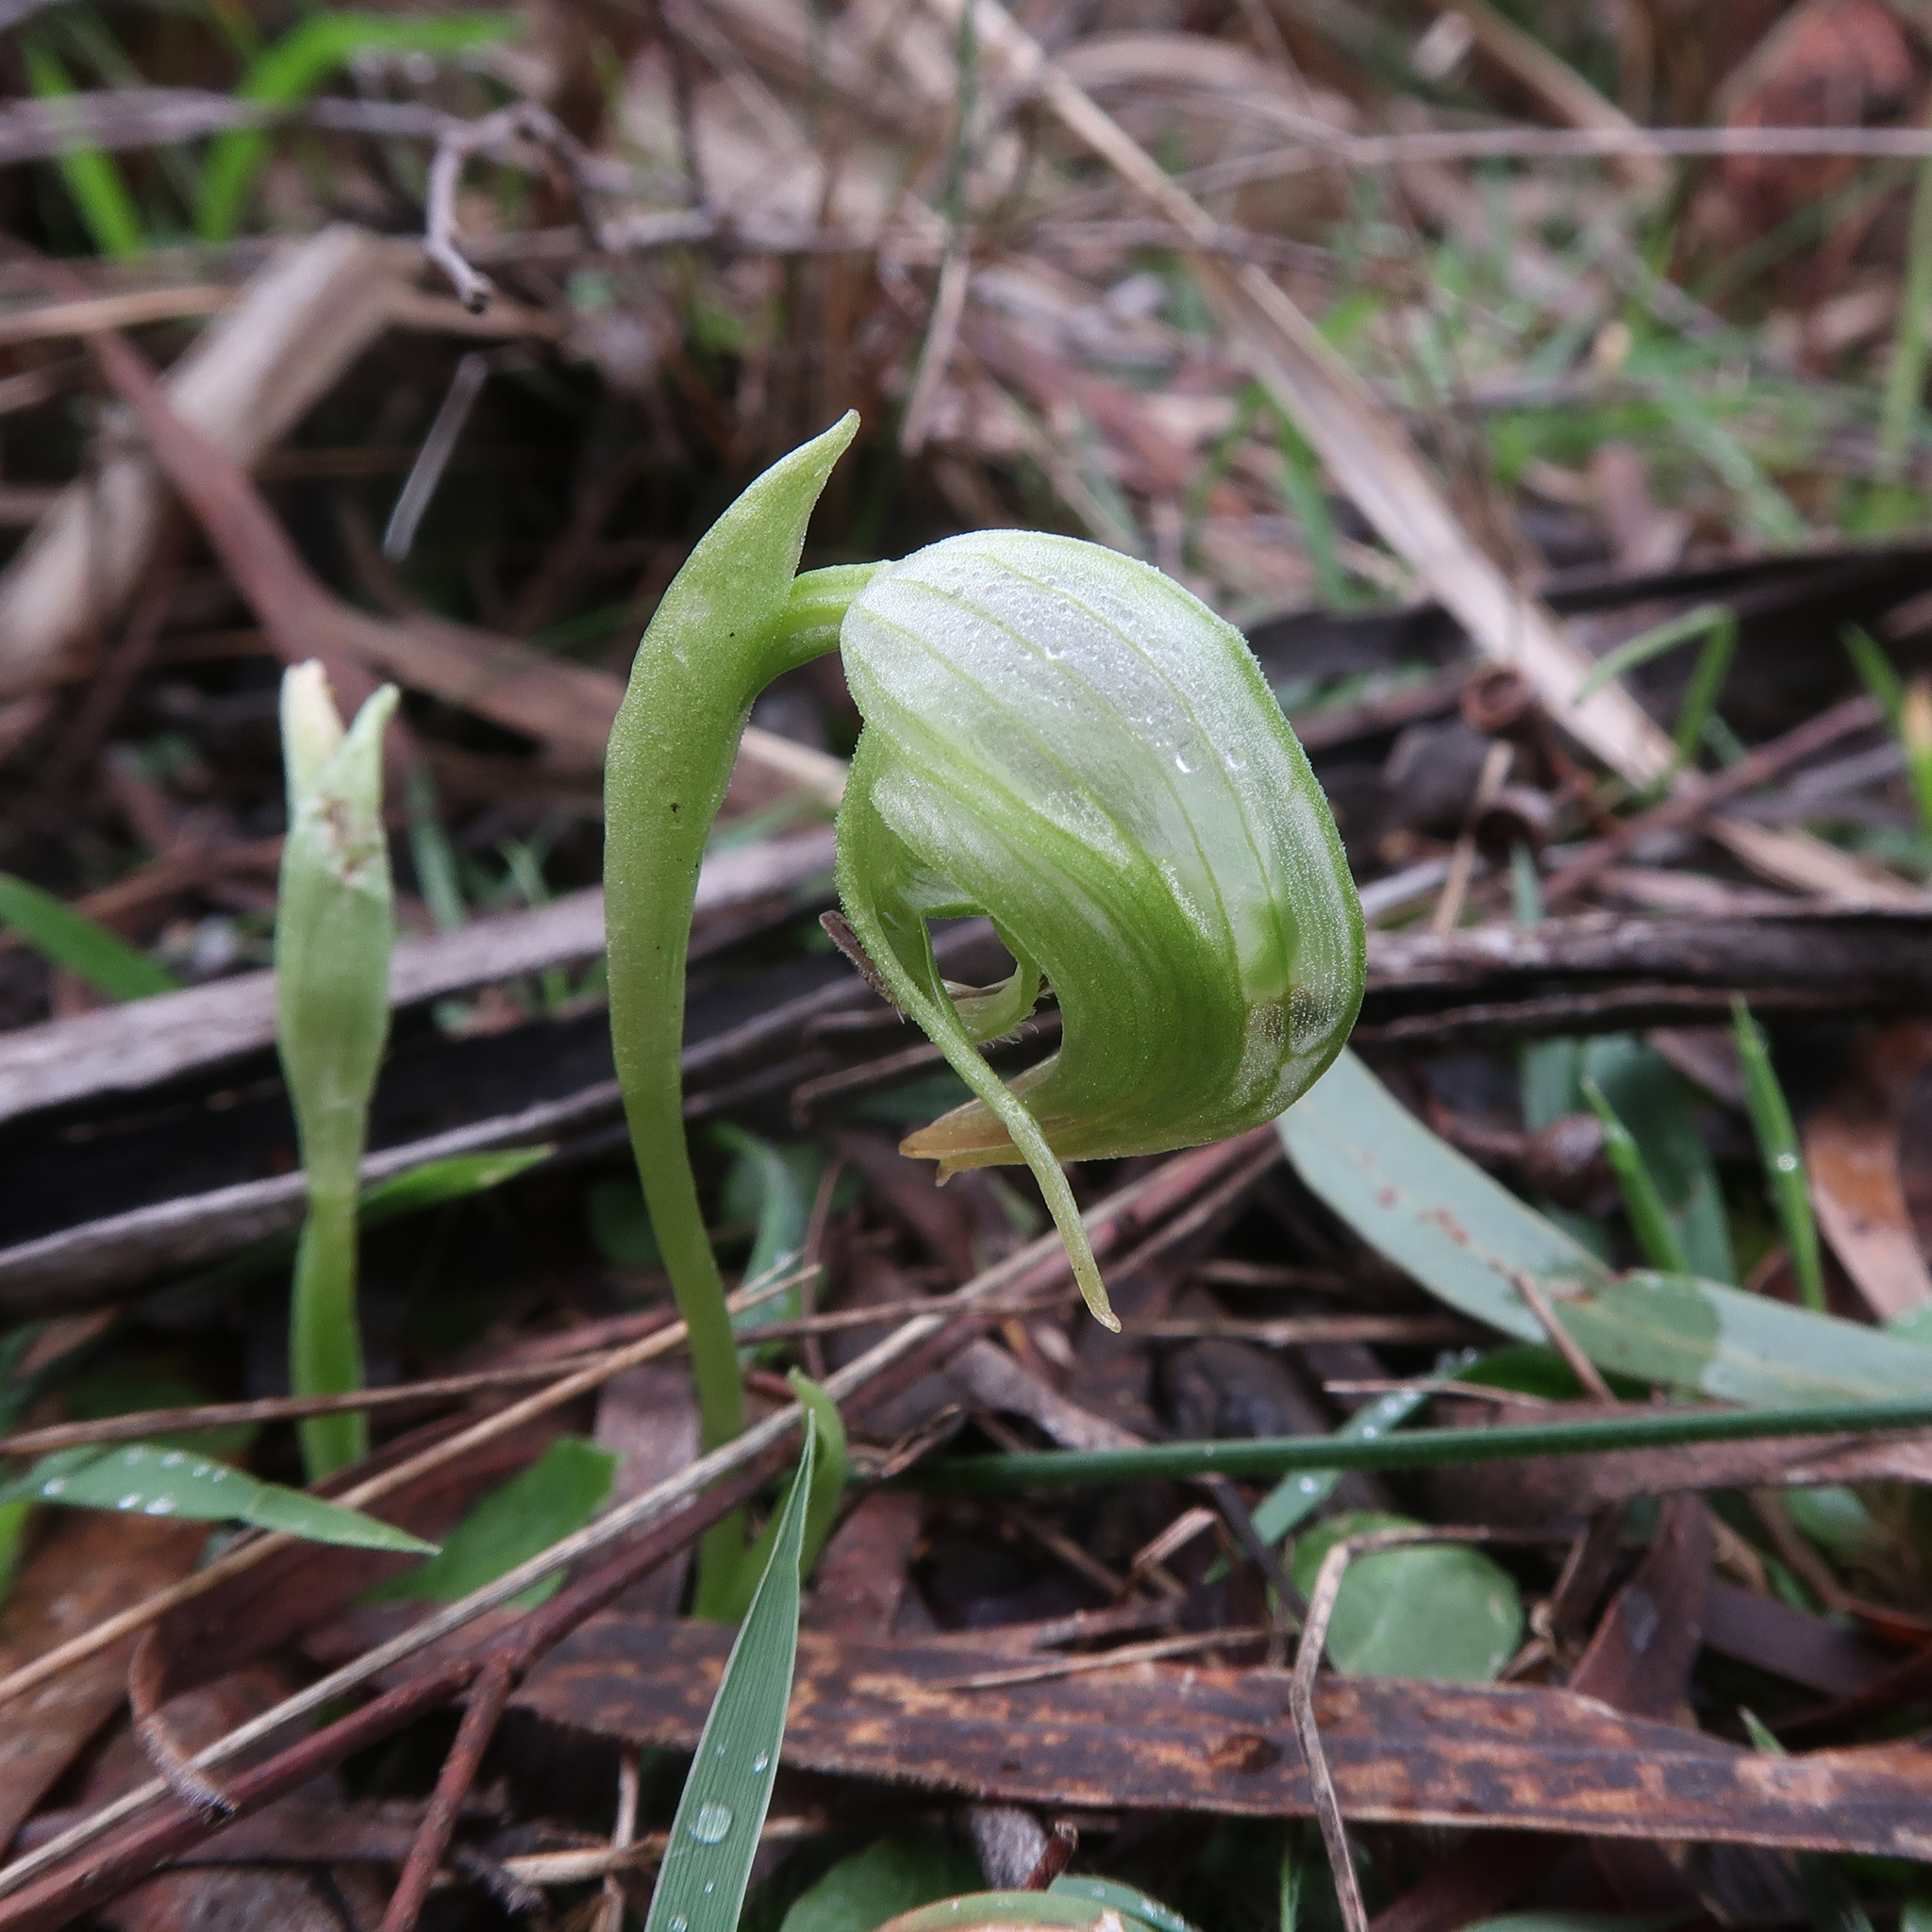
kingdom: Plantae
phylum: Tracheophyta
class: Liliopsida
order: Asparagales
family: Orchidaceae
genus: Pterostylis
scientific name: Pterostylis nutans
